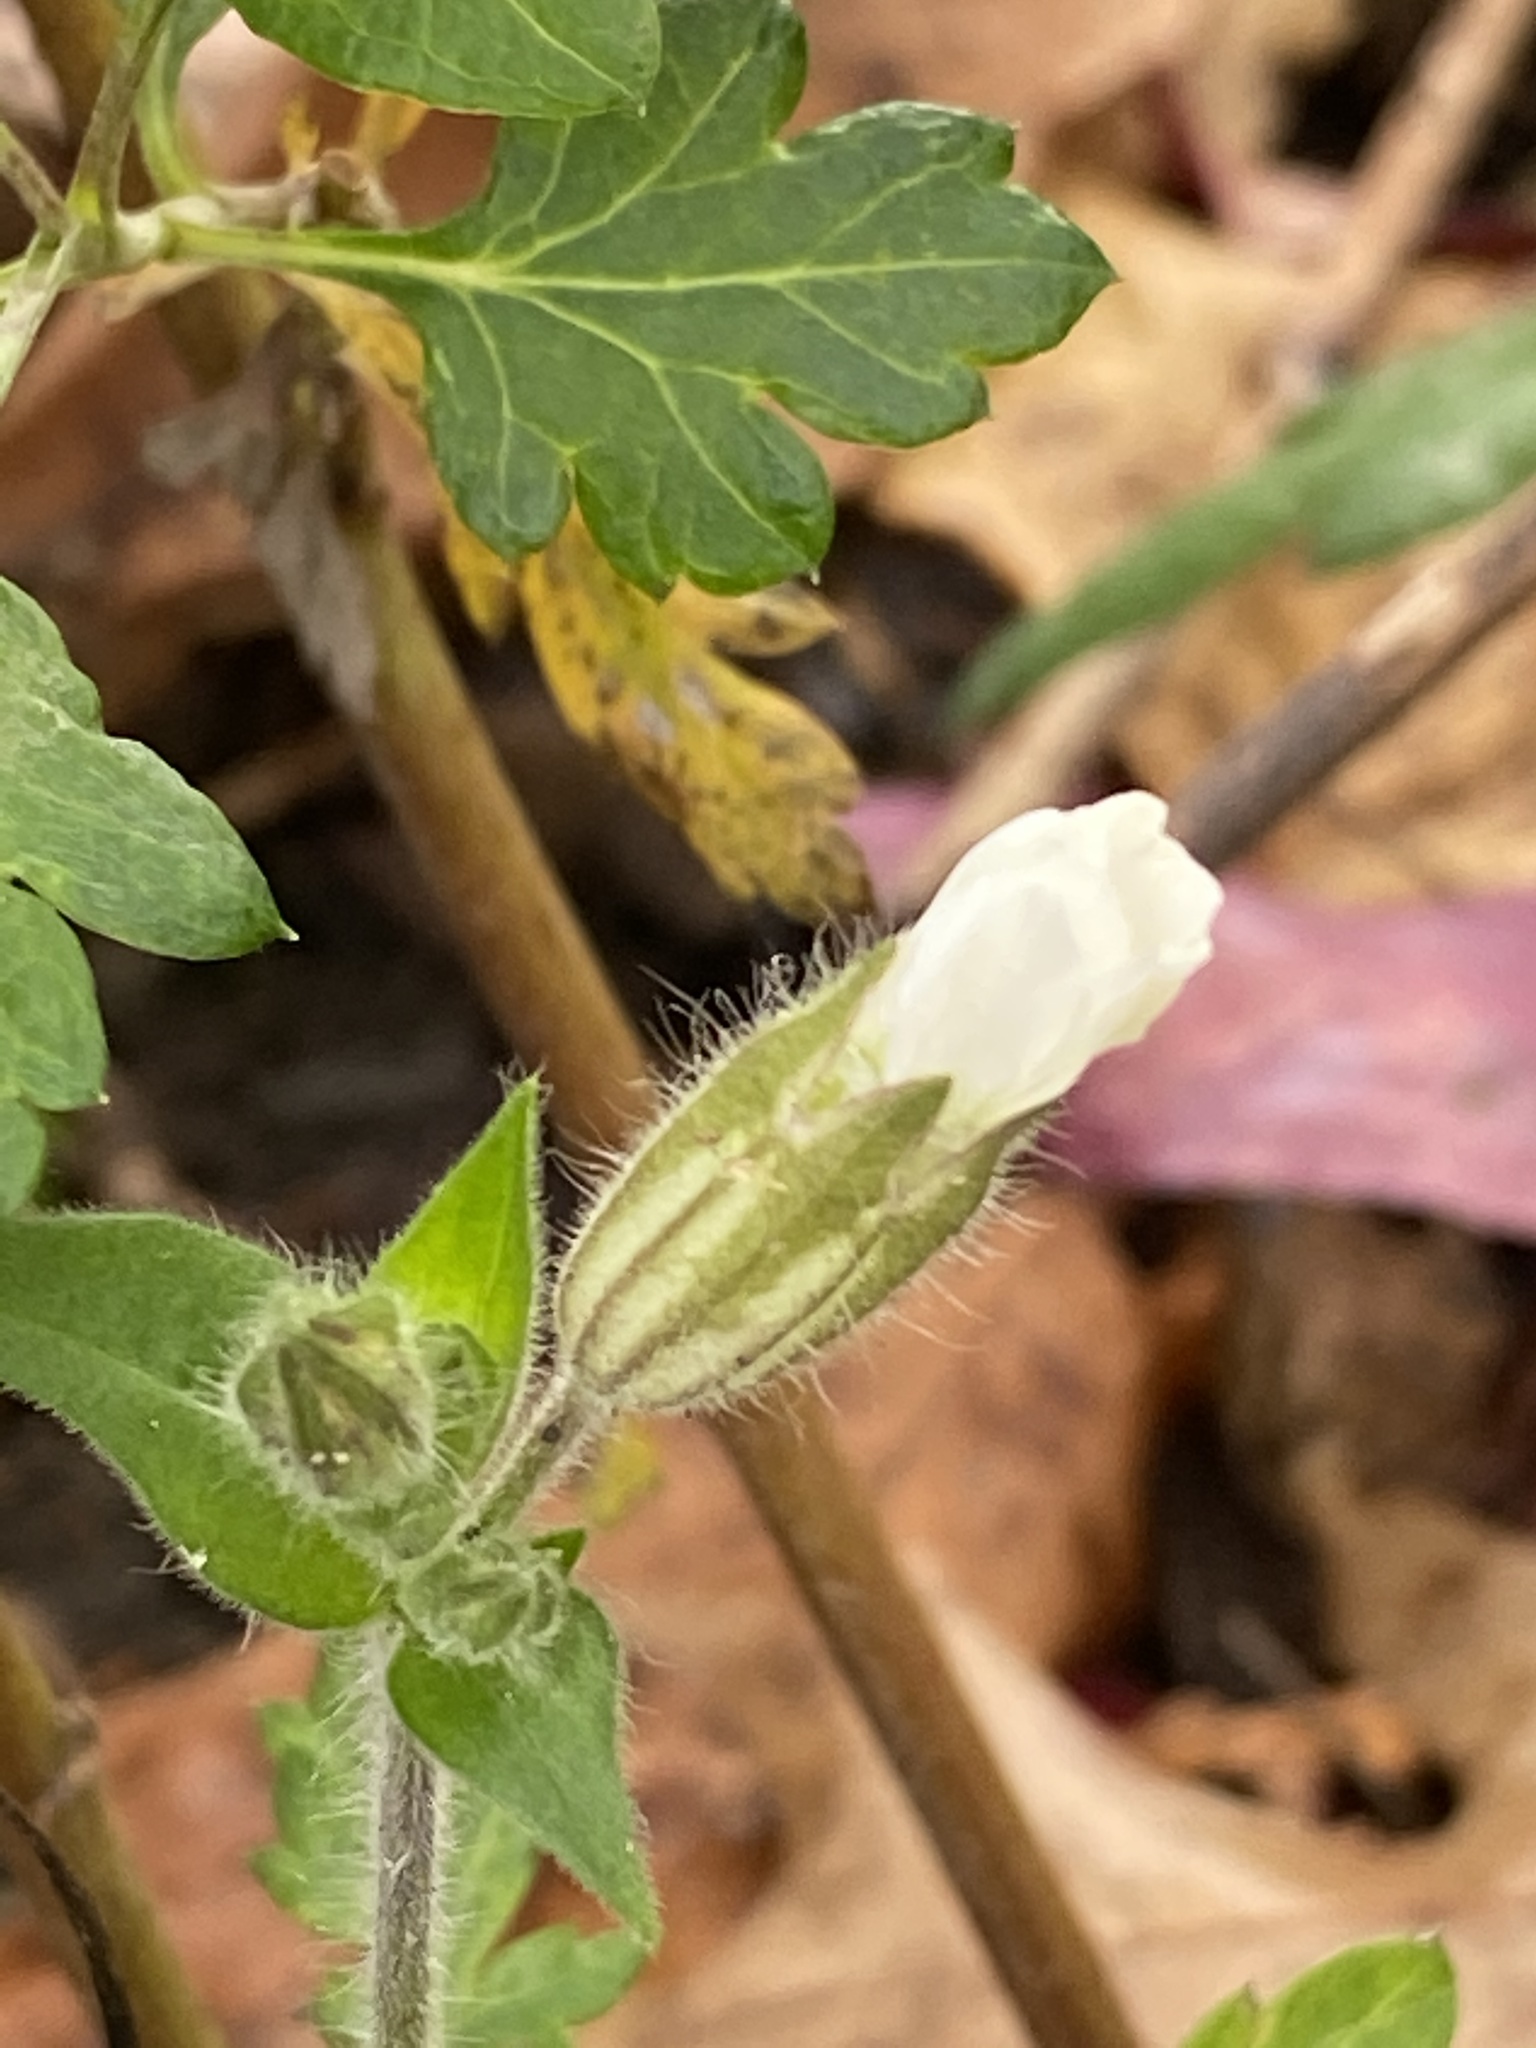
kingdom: Plantae
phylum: Tracheophyta
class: Magnoliopsida
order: Caryophyllales
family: Caryophyllaceae
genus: Silene
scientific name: Silene latifolia
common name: White campion
